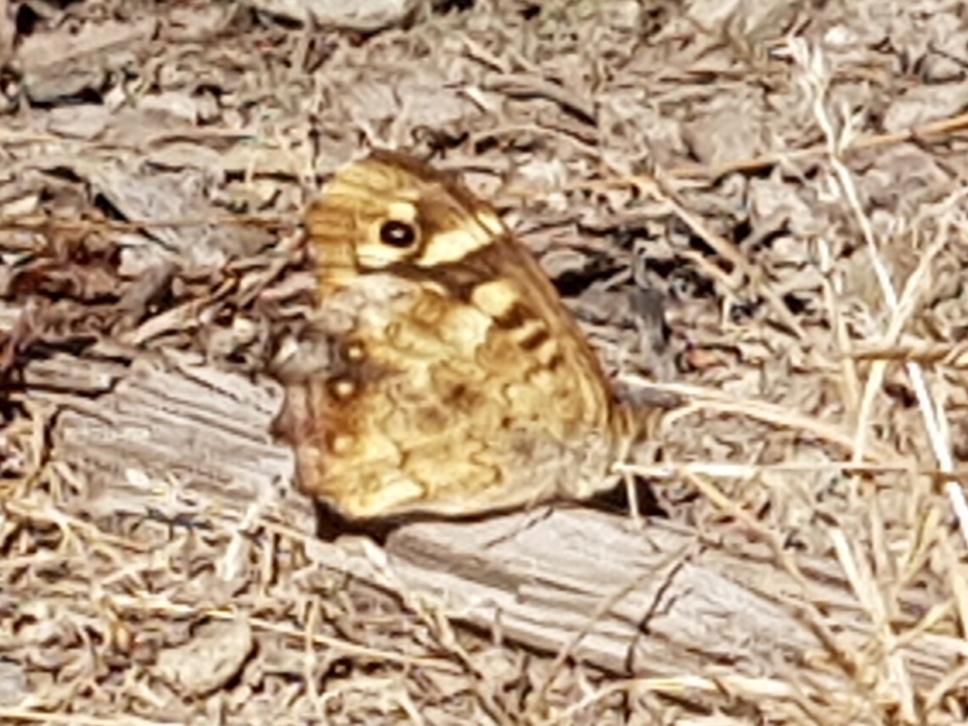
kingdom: Animalia
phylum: Arthropoda
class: Insecta
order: Lepidoptera
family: Nymphalidae
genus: Pararge
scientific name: Pararge aegeria
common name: Speckled wood
